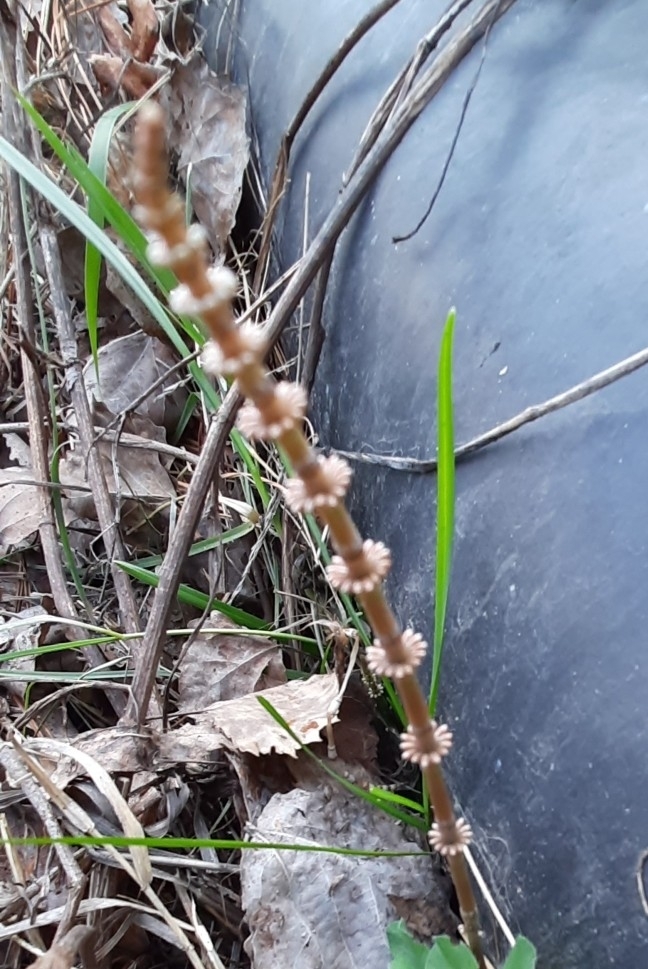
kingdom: Plantae
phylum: Tracheophyta
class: Polypodiopsida
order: Equisetales
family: Equisetaceae
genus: Equisetum
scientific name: Equisetum pratense
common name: Meadow horsetail
